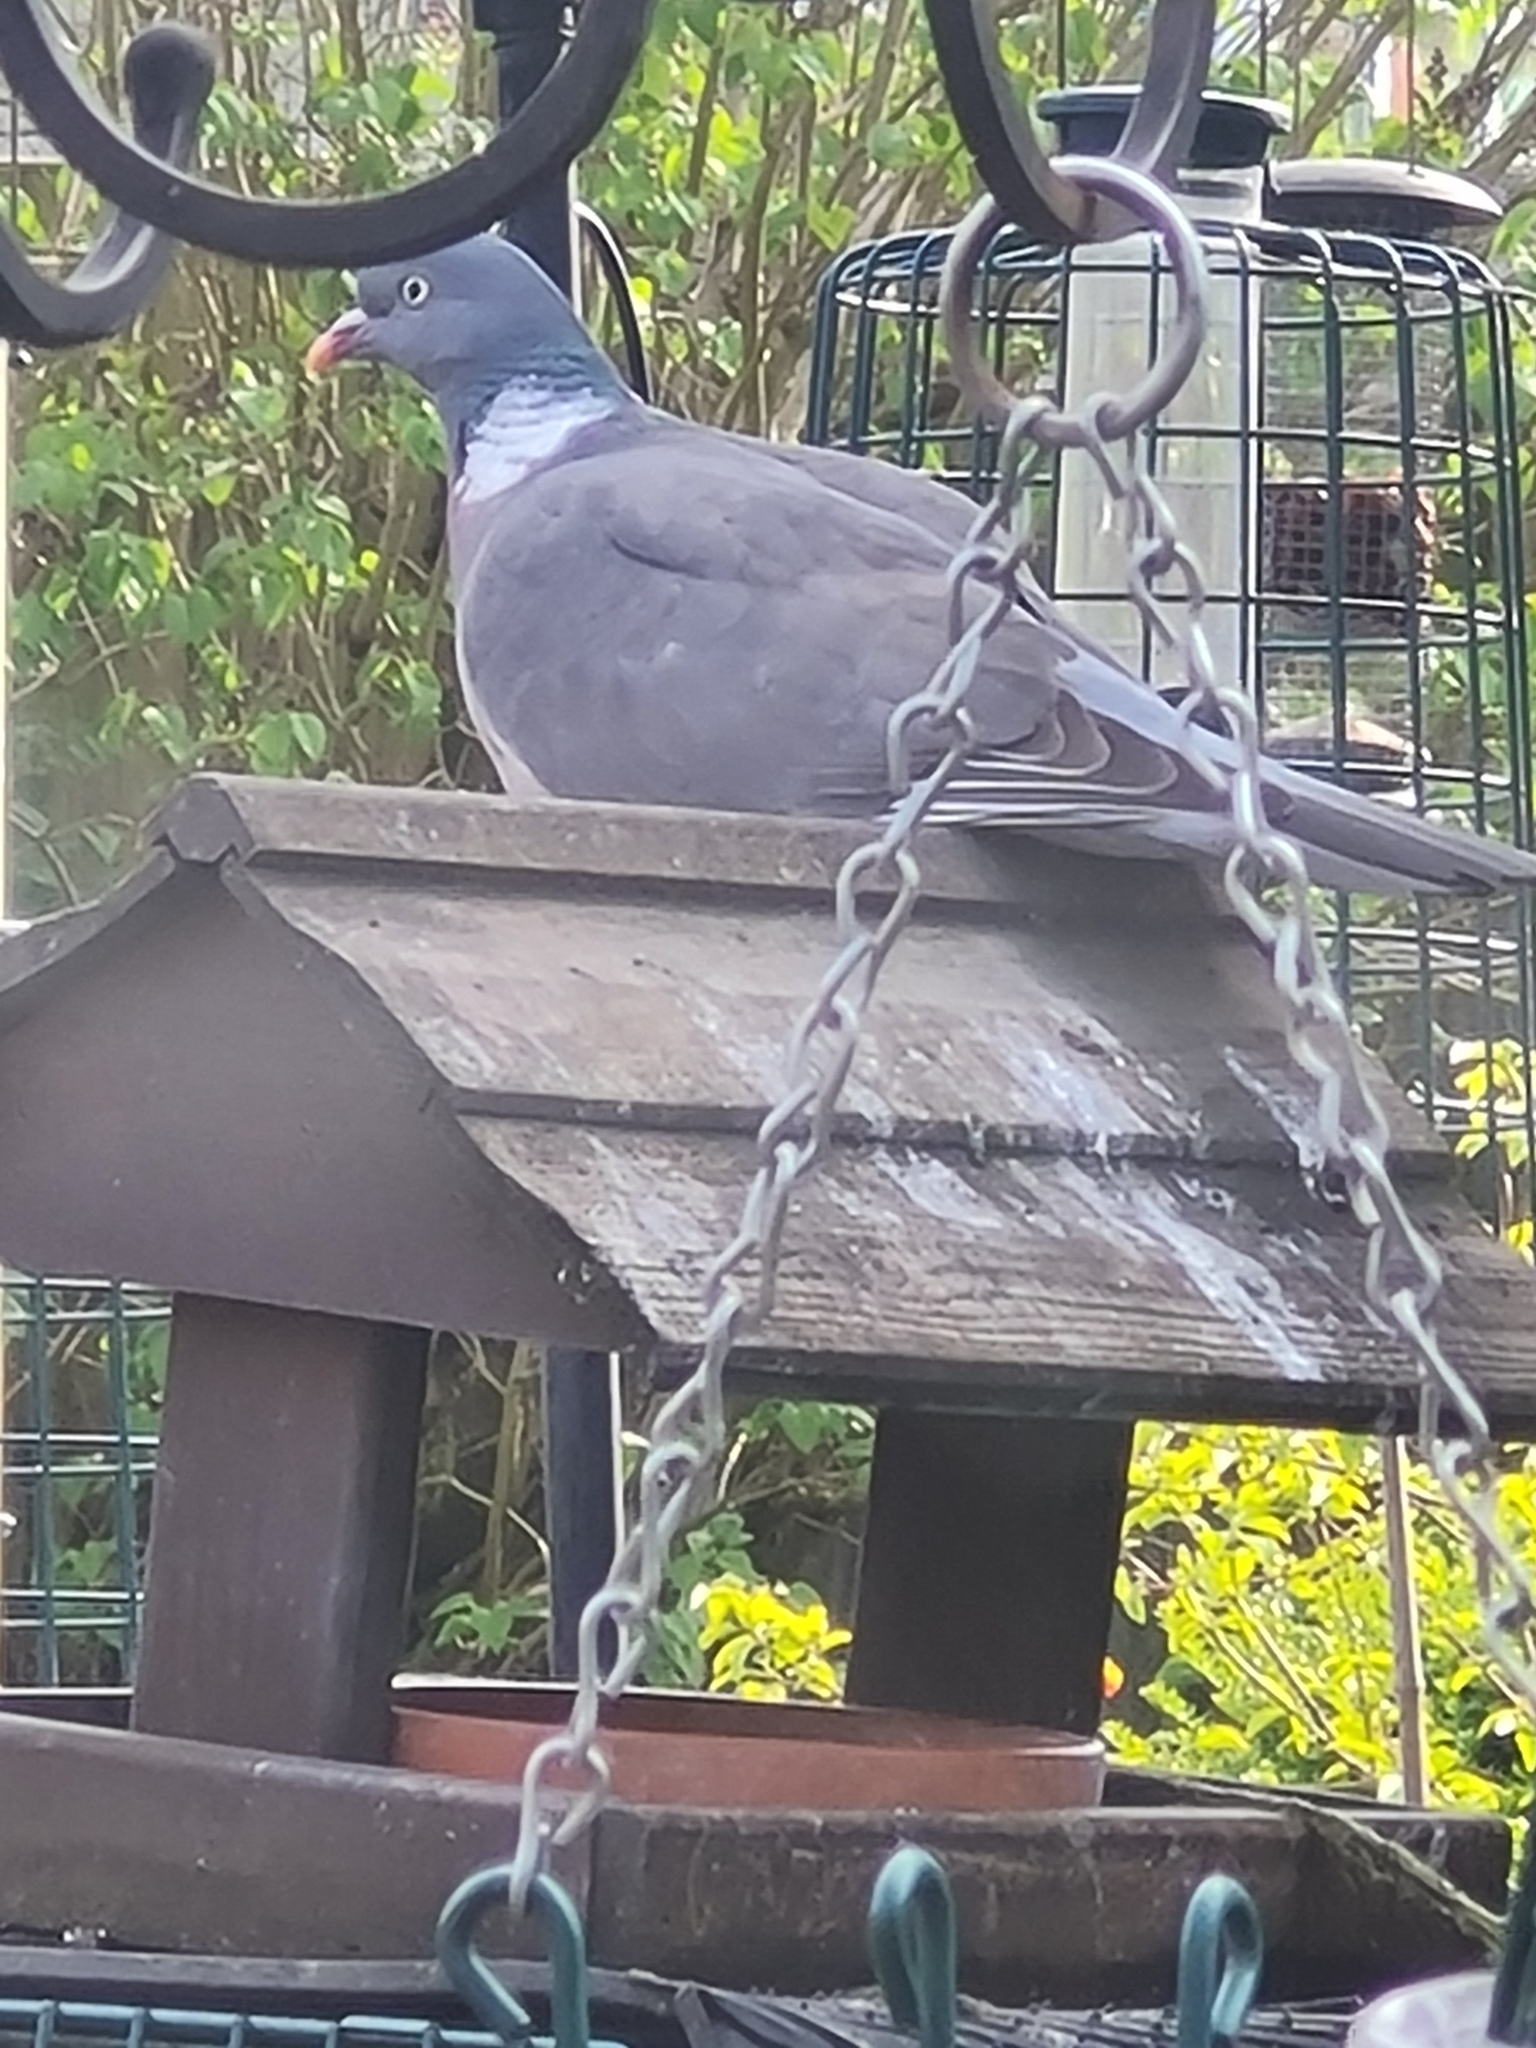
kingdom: Animalia
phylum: Chordata
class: Aves
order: Columbiformes
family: Columbidae
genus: Columba
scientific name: Columba palumbus
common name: Common wood pigeon
